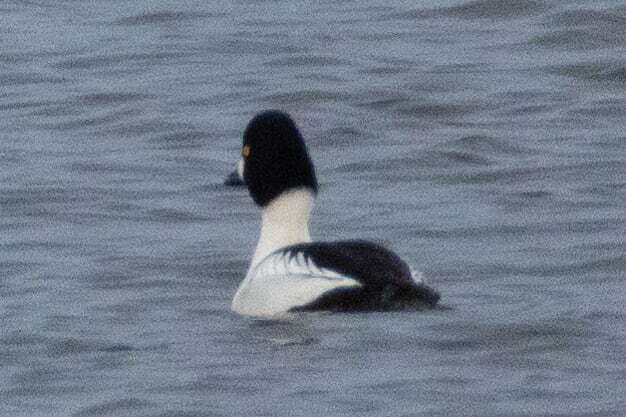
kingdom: Animalia
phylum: Chordata
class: Aves
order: Anseriformes
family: Anatidae
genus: Bucephala
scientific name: Bucephala clangula
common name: Common goldeneye
